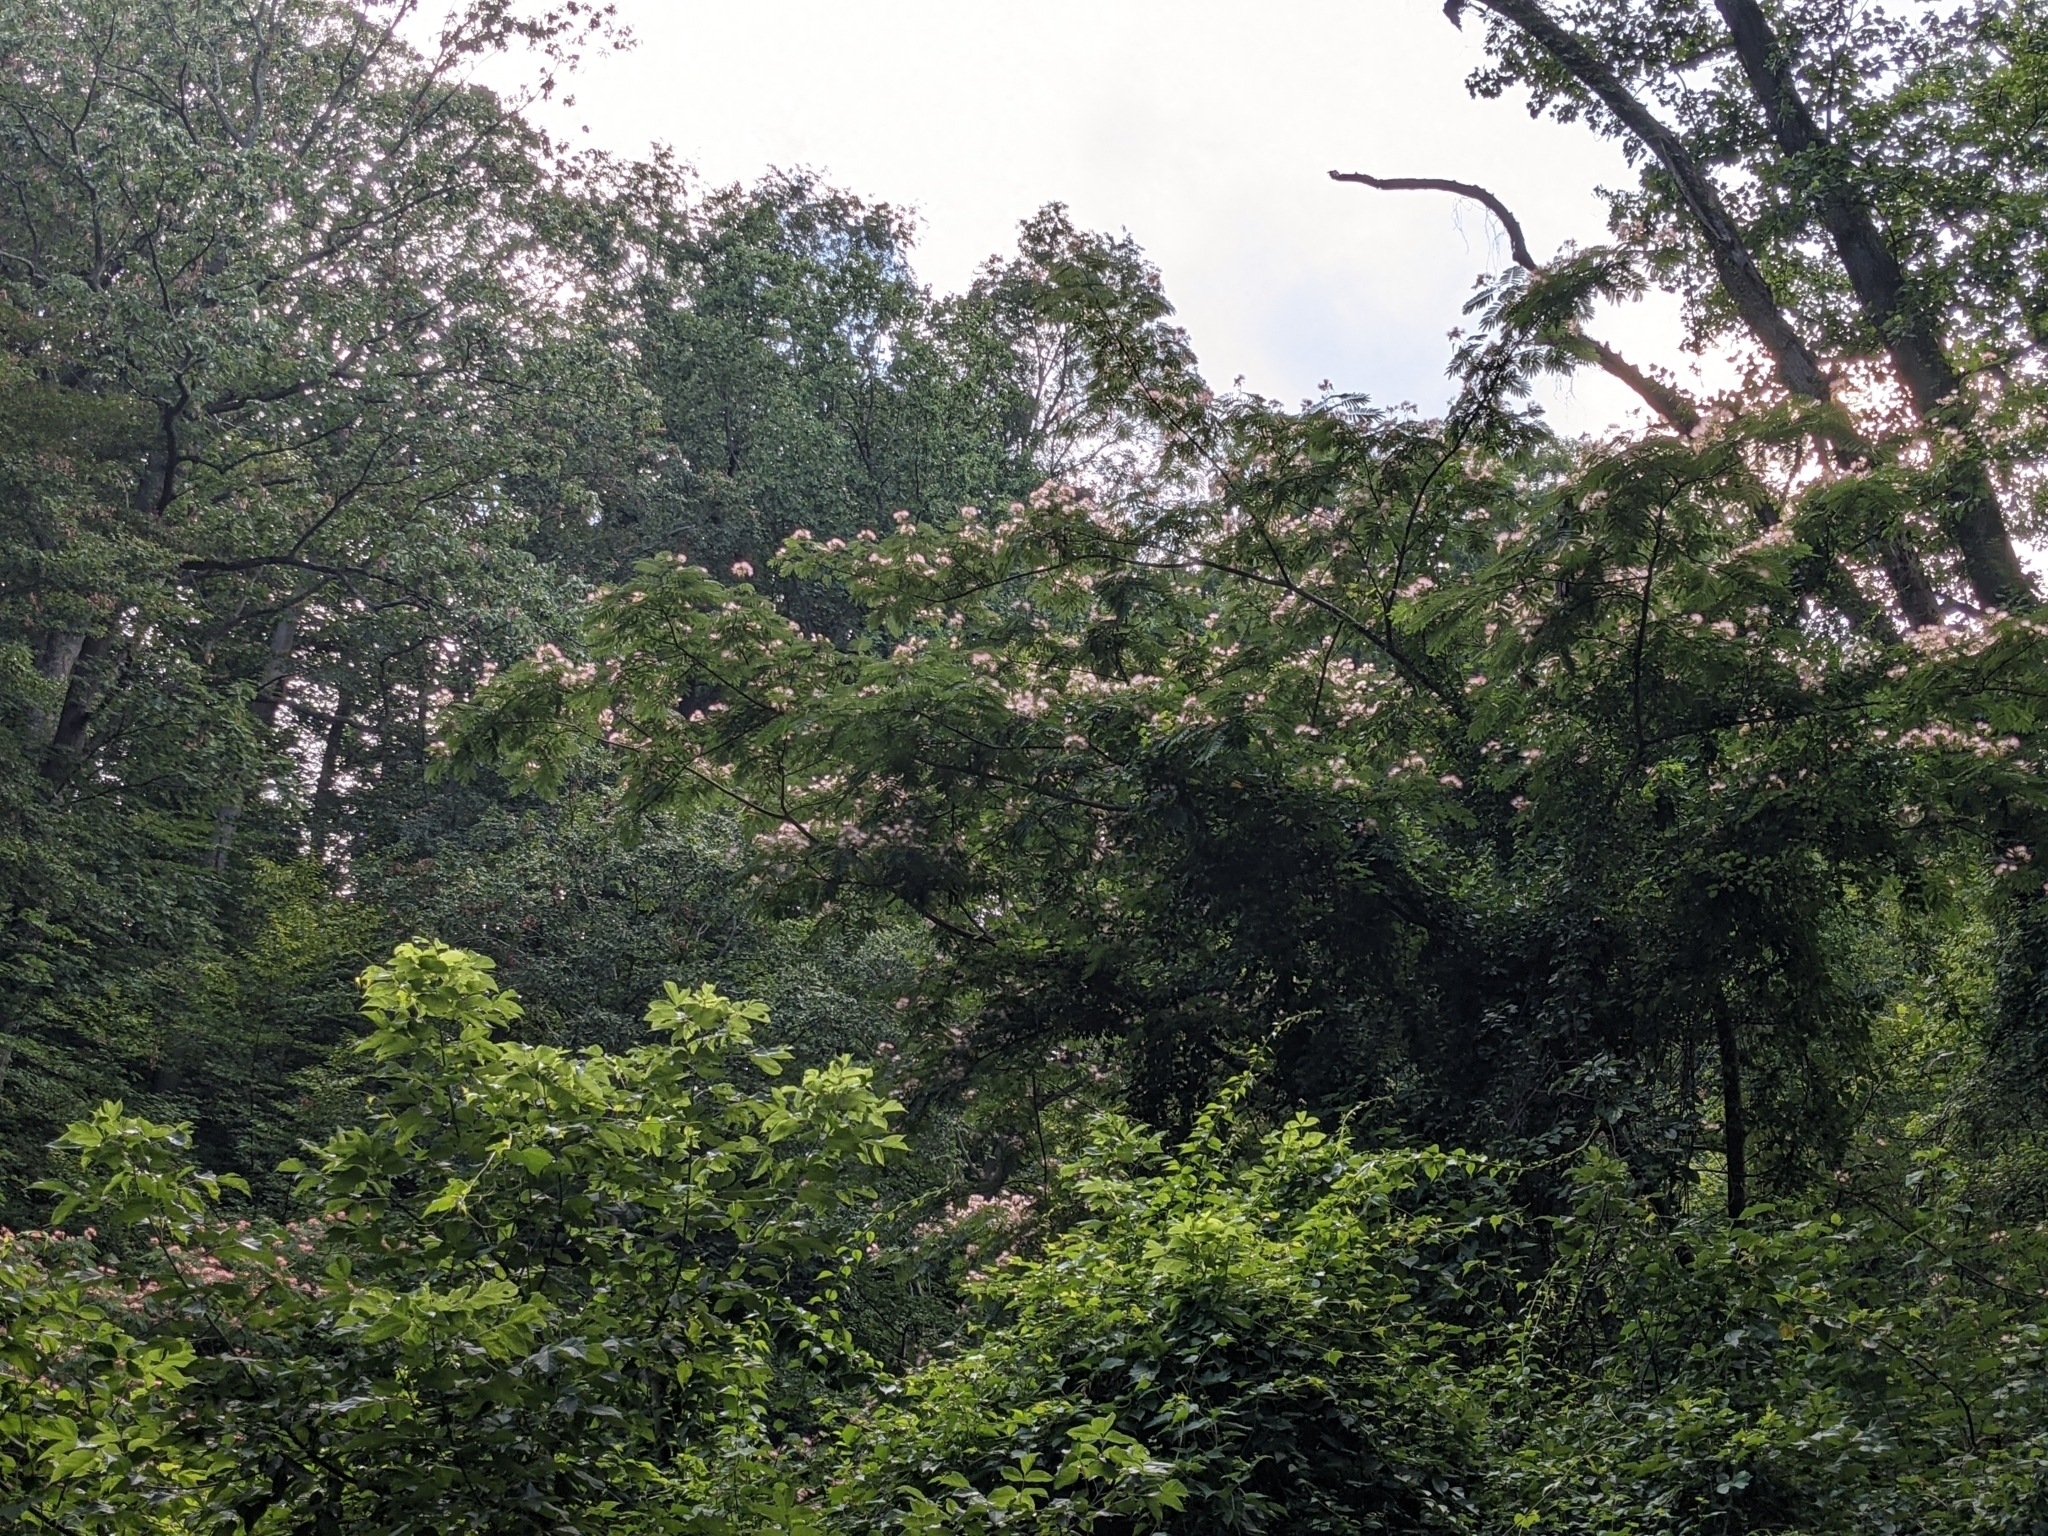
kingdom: Plantae
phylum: Tracheophyta
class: Magnoliopsida
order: Fabales
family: Fabaceae
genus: Albizia
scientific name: Albizia julibrissin
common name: Silktree
